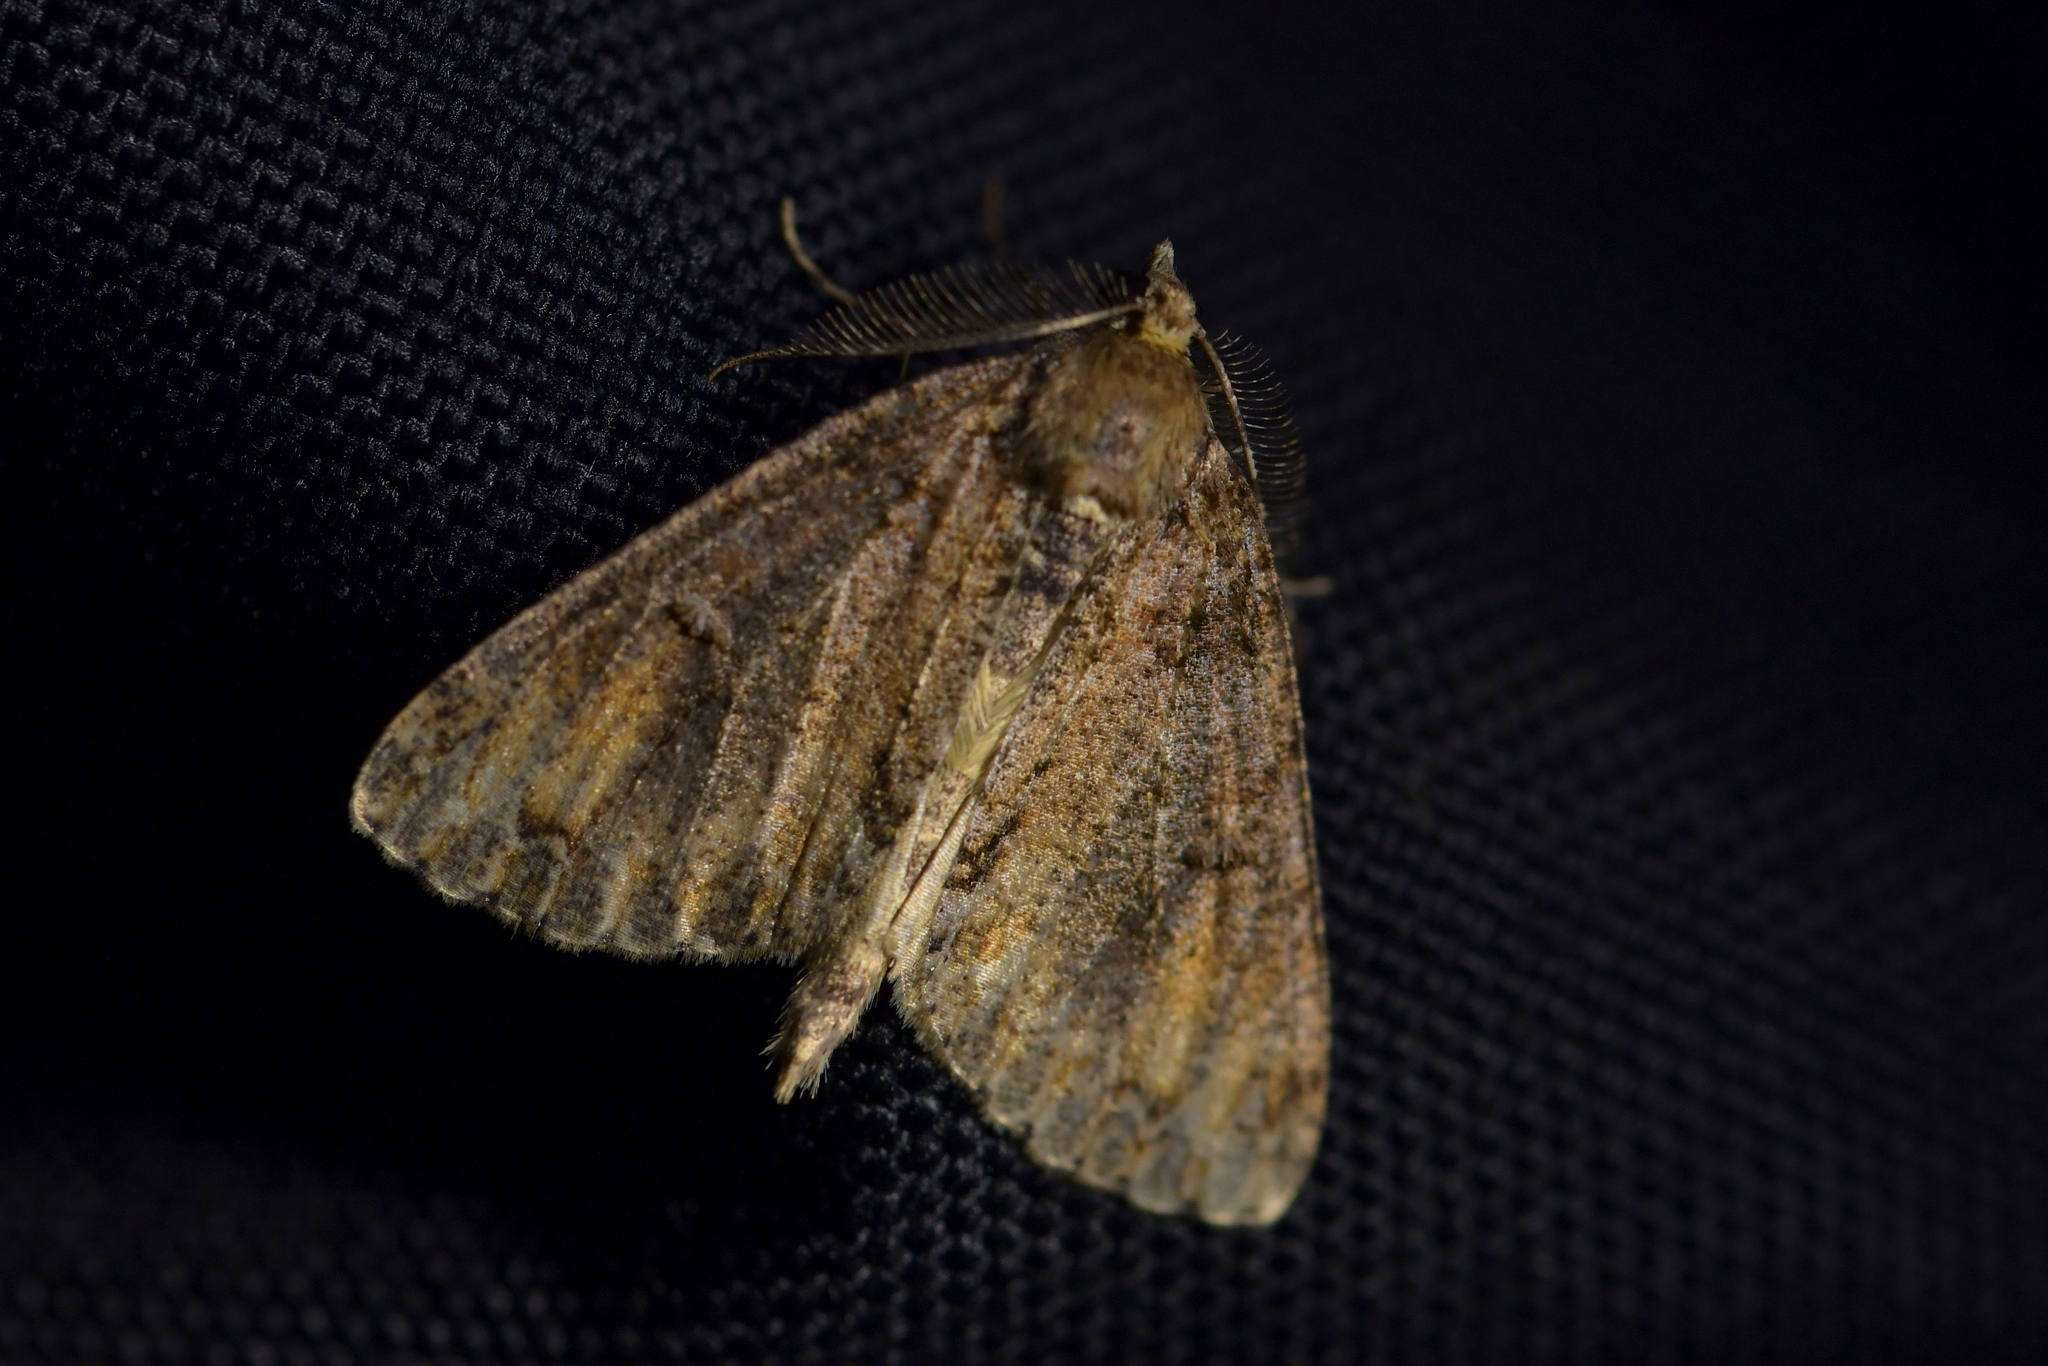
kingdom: Animalia
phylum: Arthropoda
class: Insecta
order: Lepidoptera
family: Geometridae
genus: Pseudocoremia
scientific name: Pseudocoremia suavis
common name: Common forest looper
